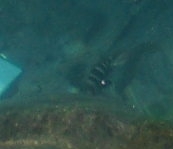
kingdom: Animalia
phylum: Chordata
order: Perciformes
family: Sparidae
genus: Diplodus
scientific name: Diplodus cervinus
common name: Oman porgy
